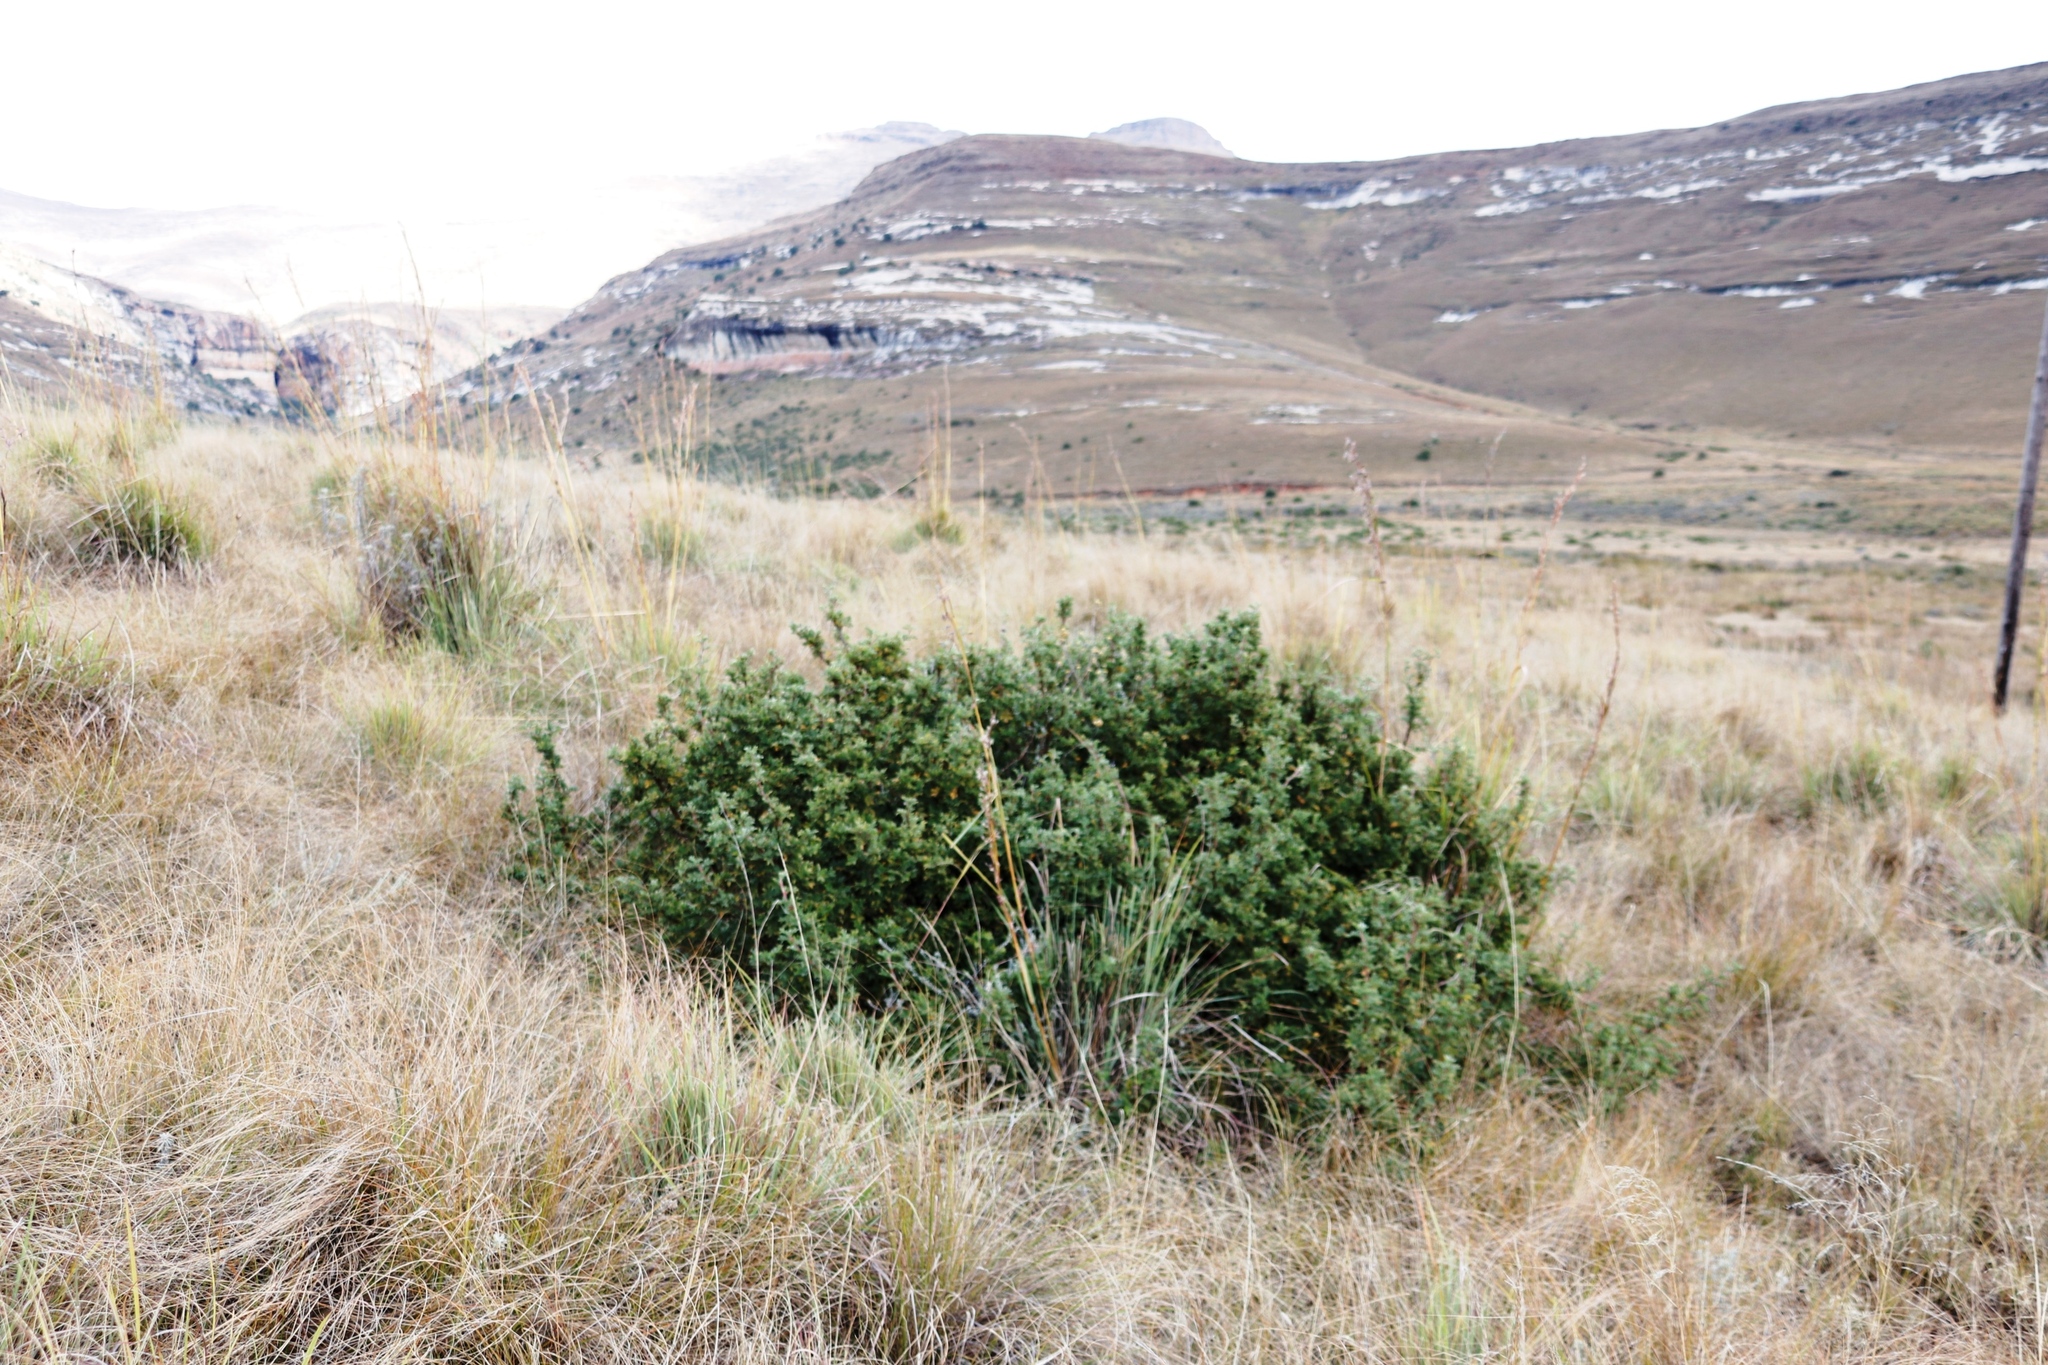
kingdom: Plantae
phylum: Tracheophyta
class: Magnoliopsida
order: Rosales
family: Rosaceae
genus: Leucosidea
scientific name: Leucosidea sericea
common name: Oldwood
